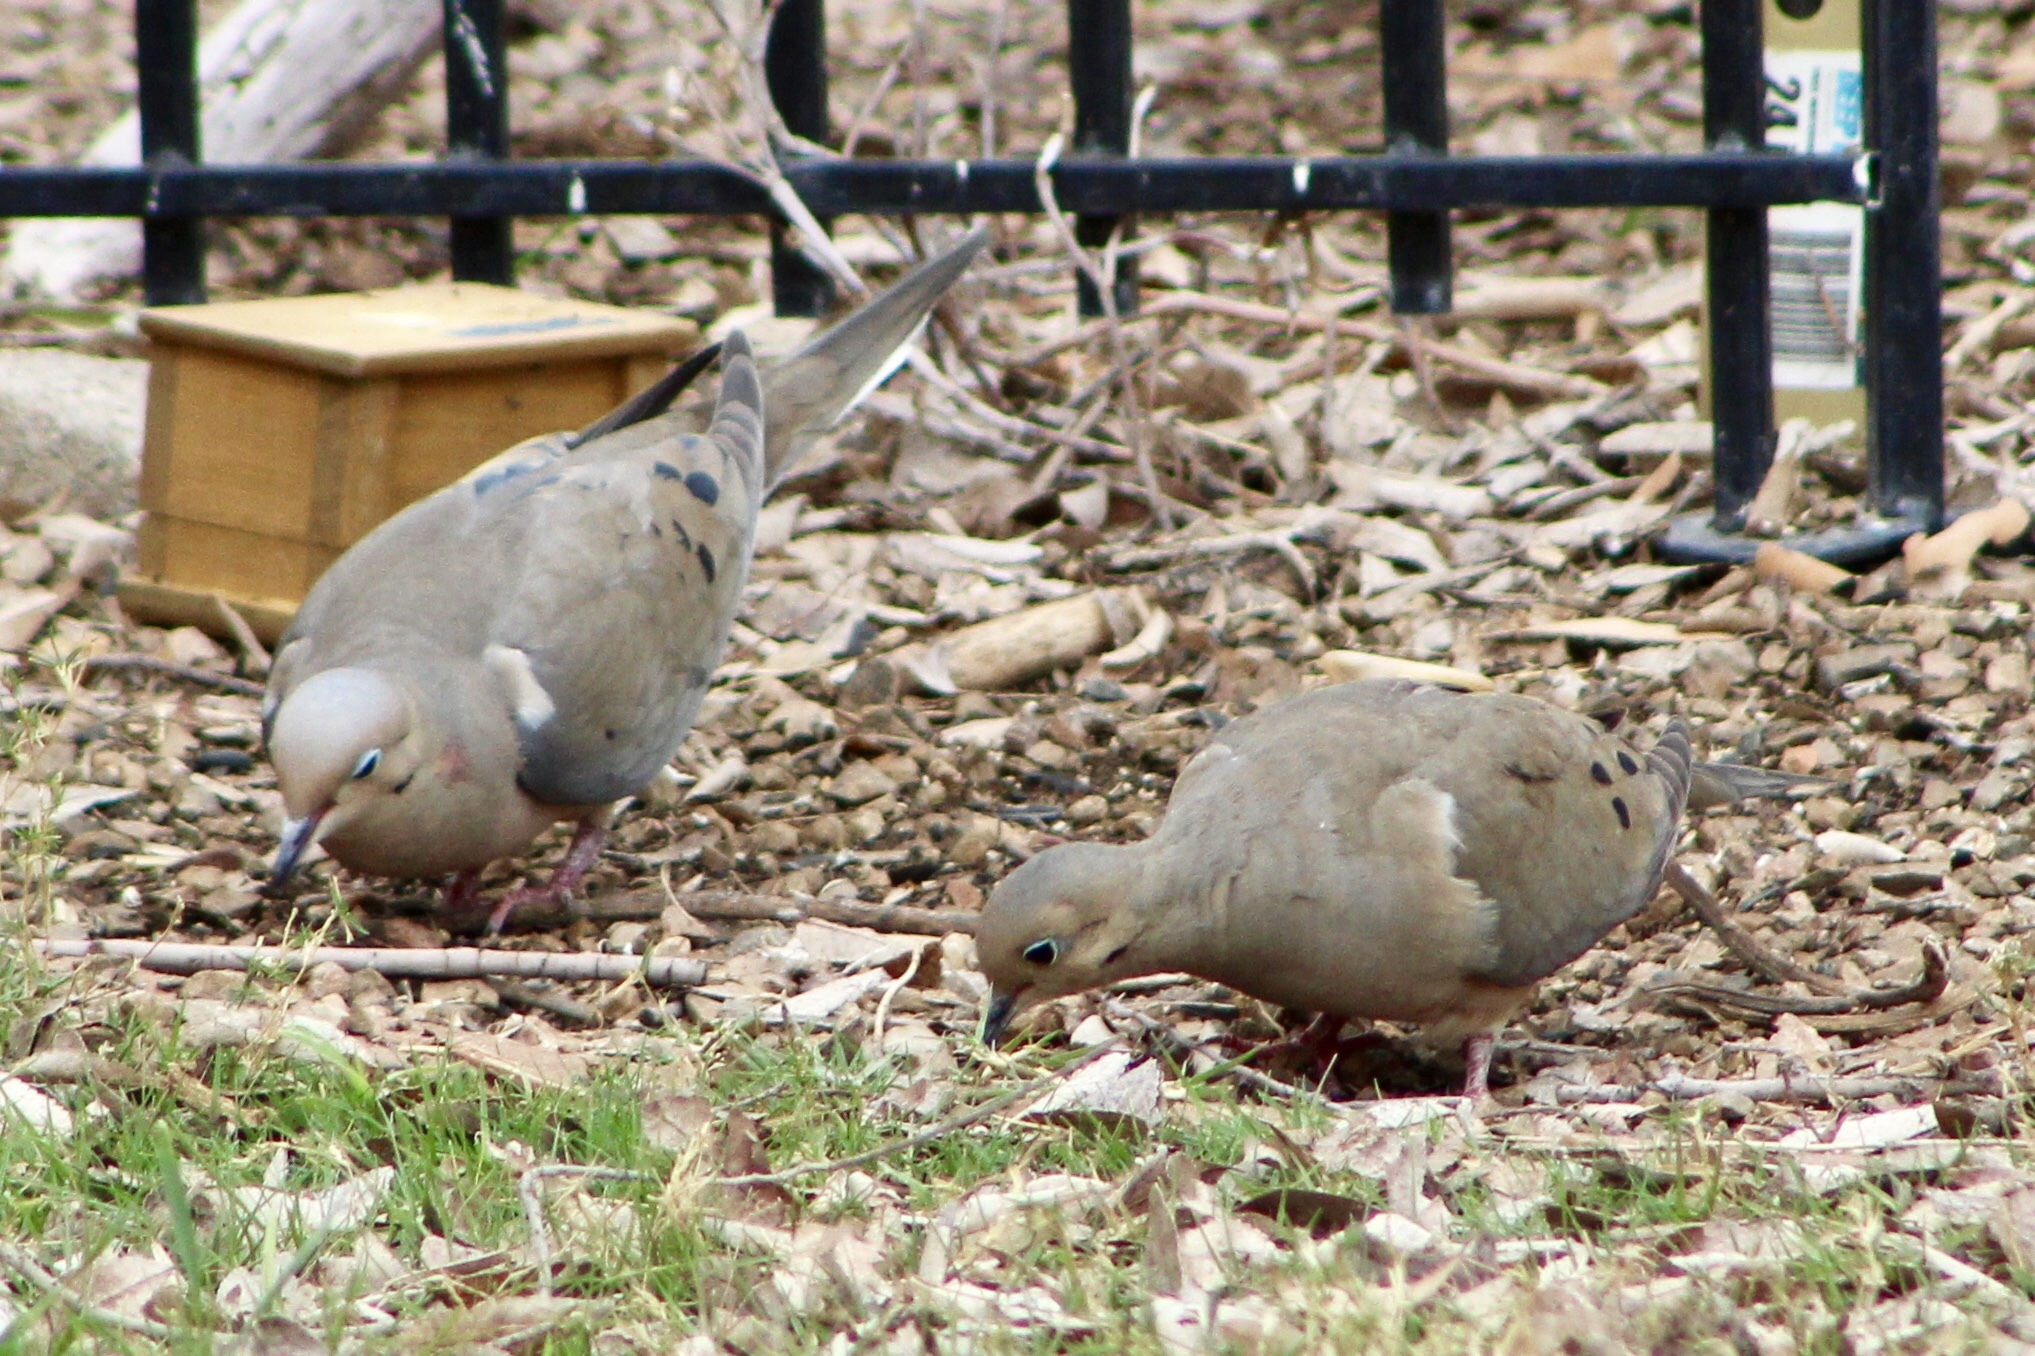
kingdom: Animalia
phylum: Chordata
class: Aves
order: Columbiformes
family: Columbidae
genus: Zenaida
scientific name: Zenaida macroura
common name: Mourning dove
